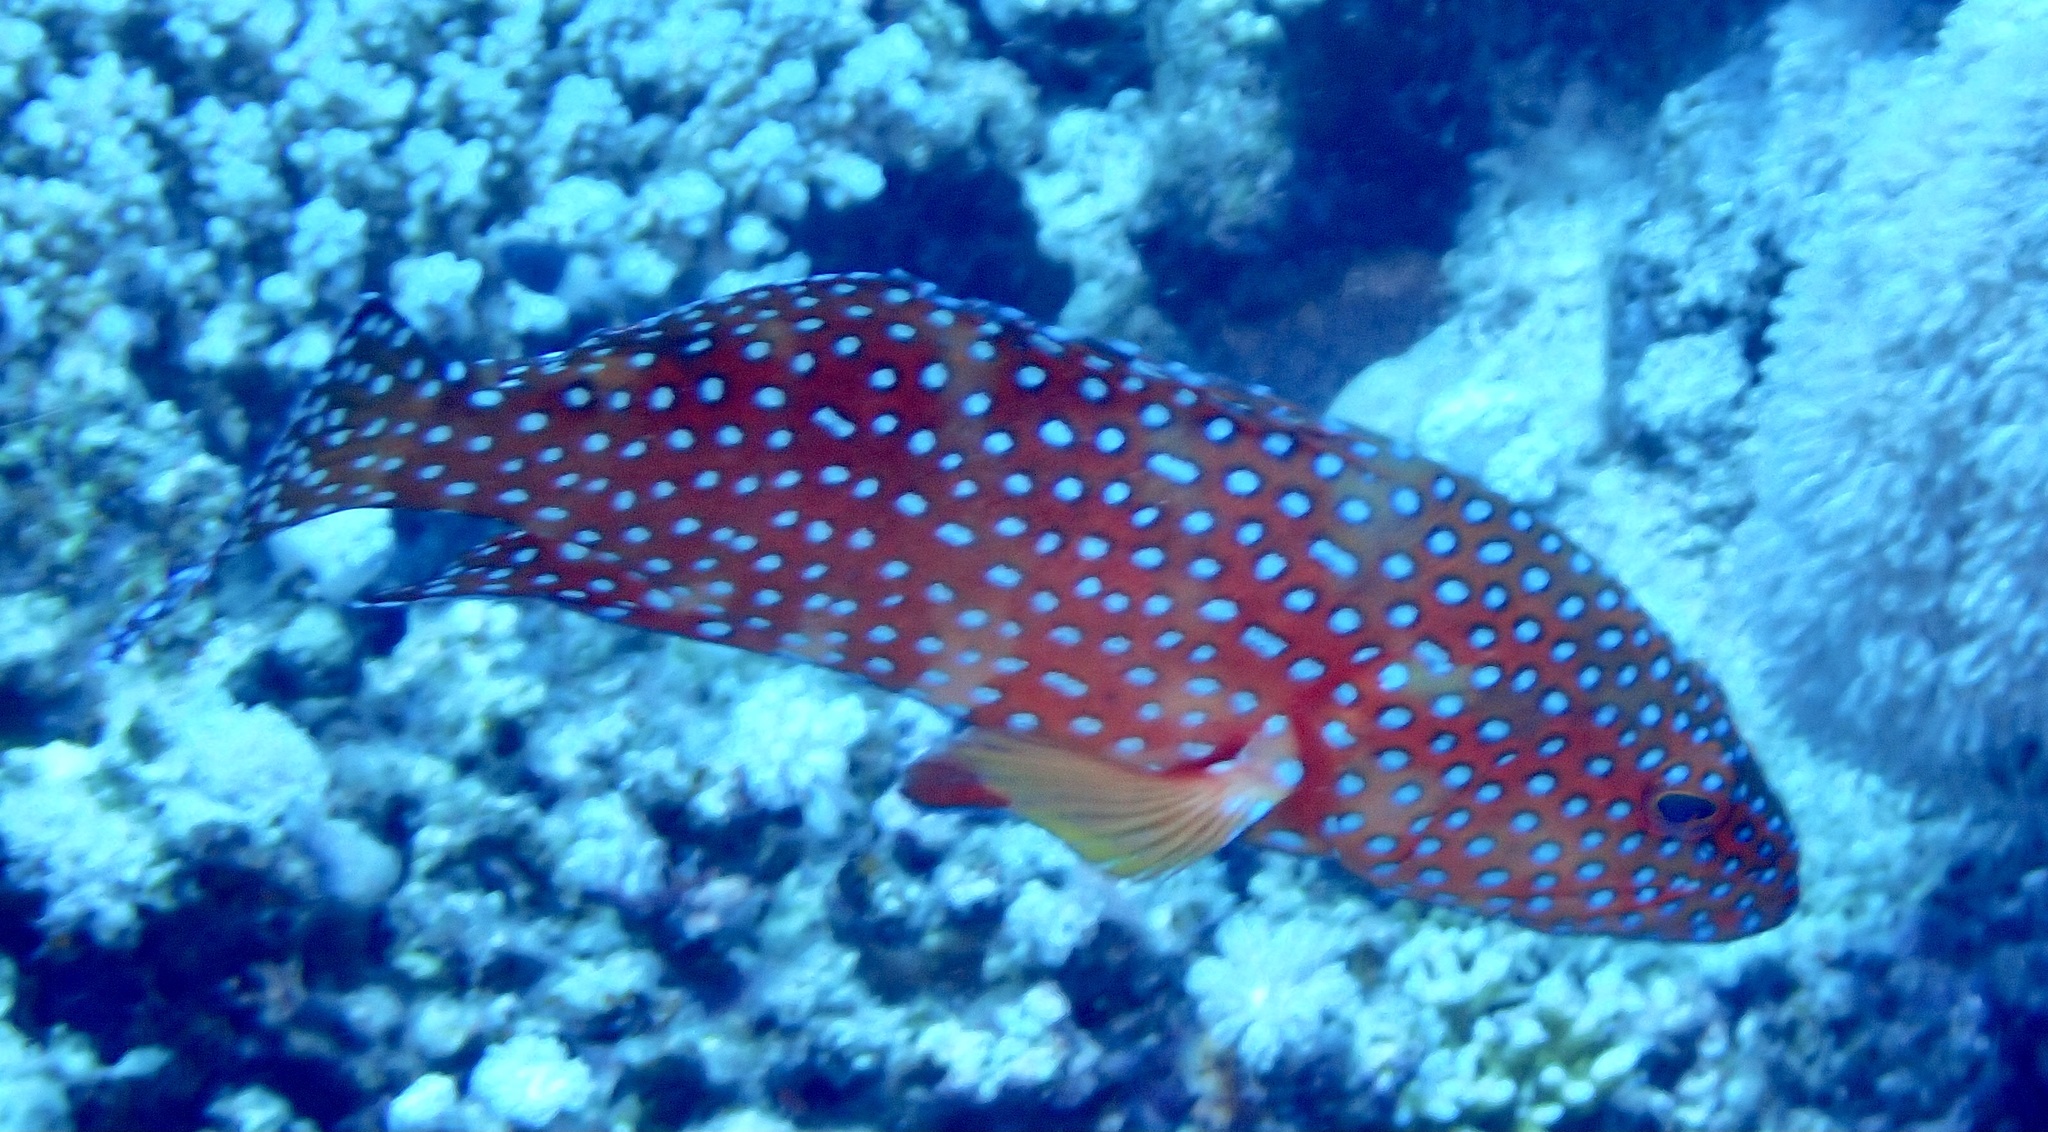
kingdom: Animalia
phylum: Chordata
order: Perciformes
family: Serranidae
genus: Cephalopholis
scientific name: Cephalopholis miniata
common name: Coral hind
